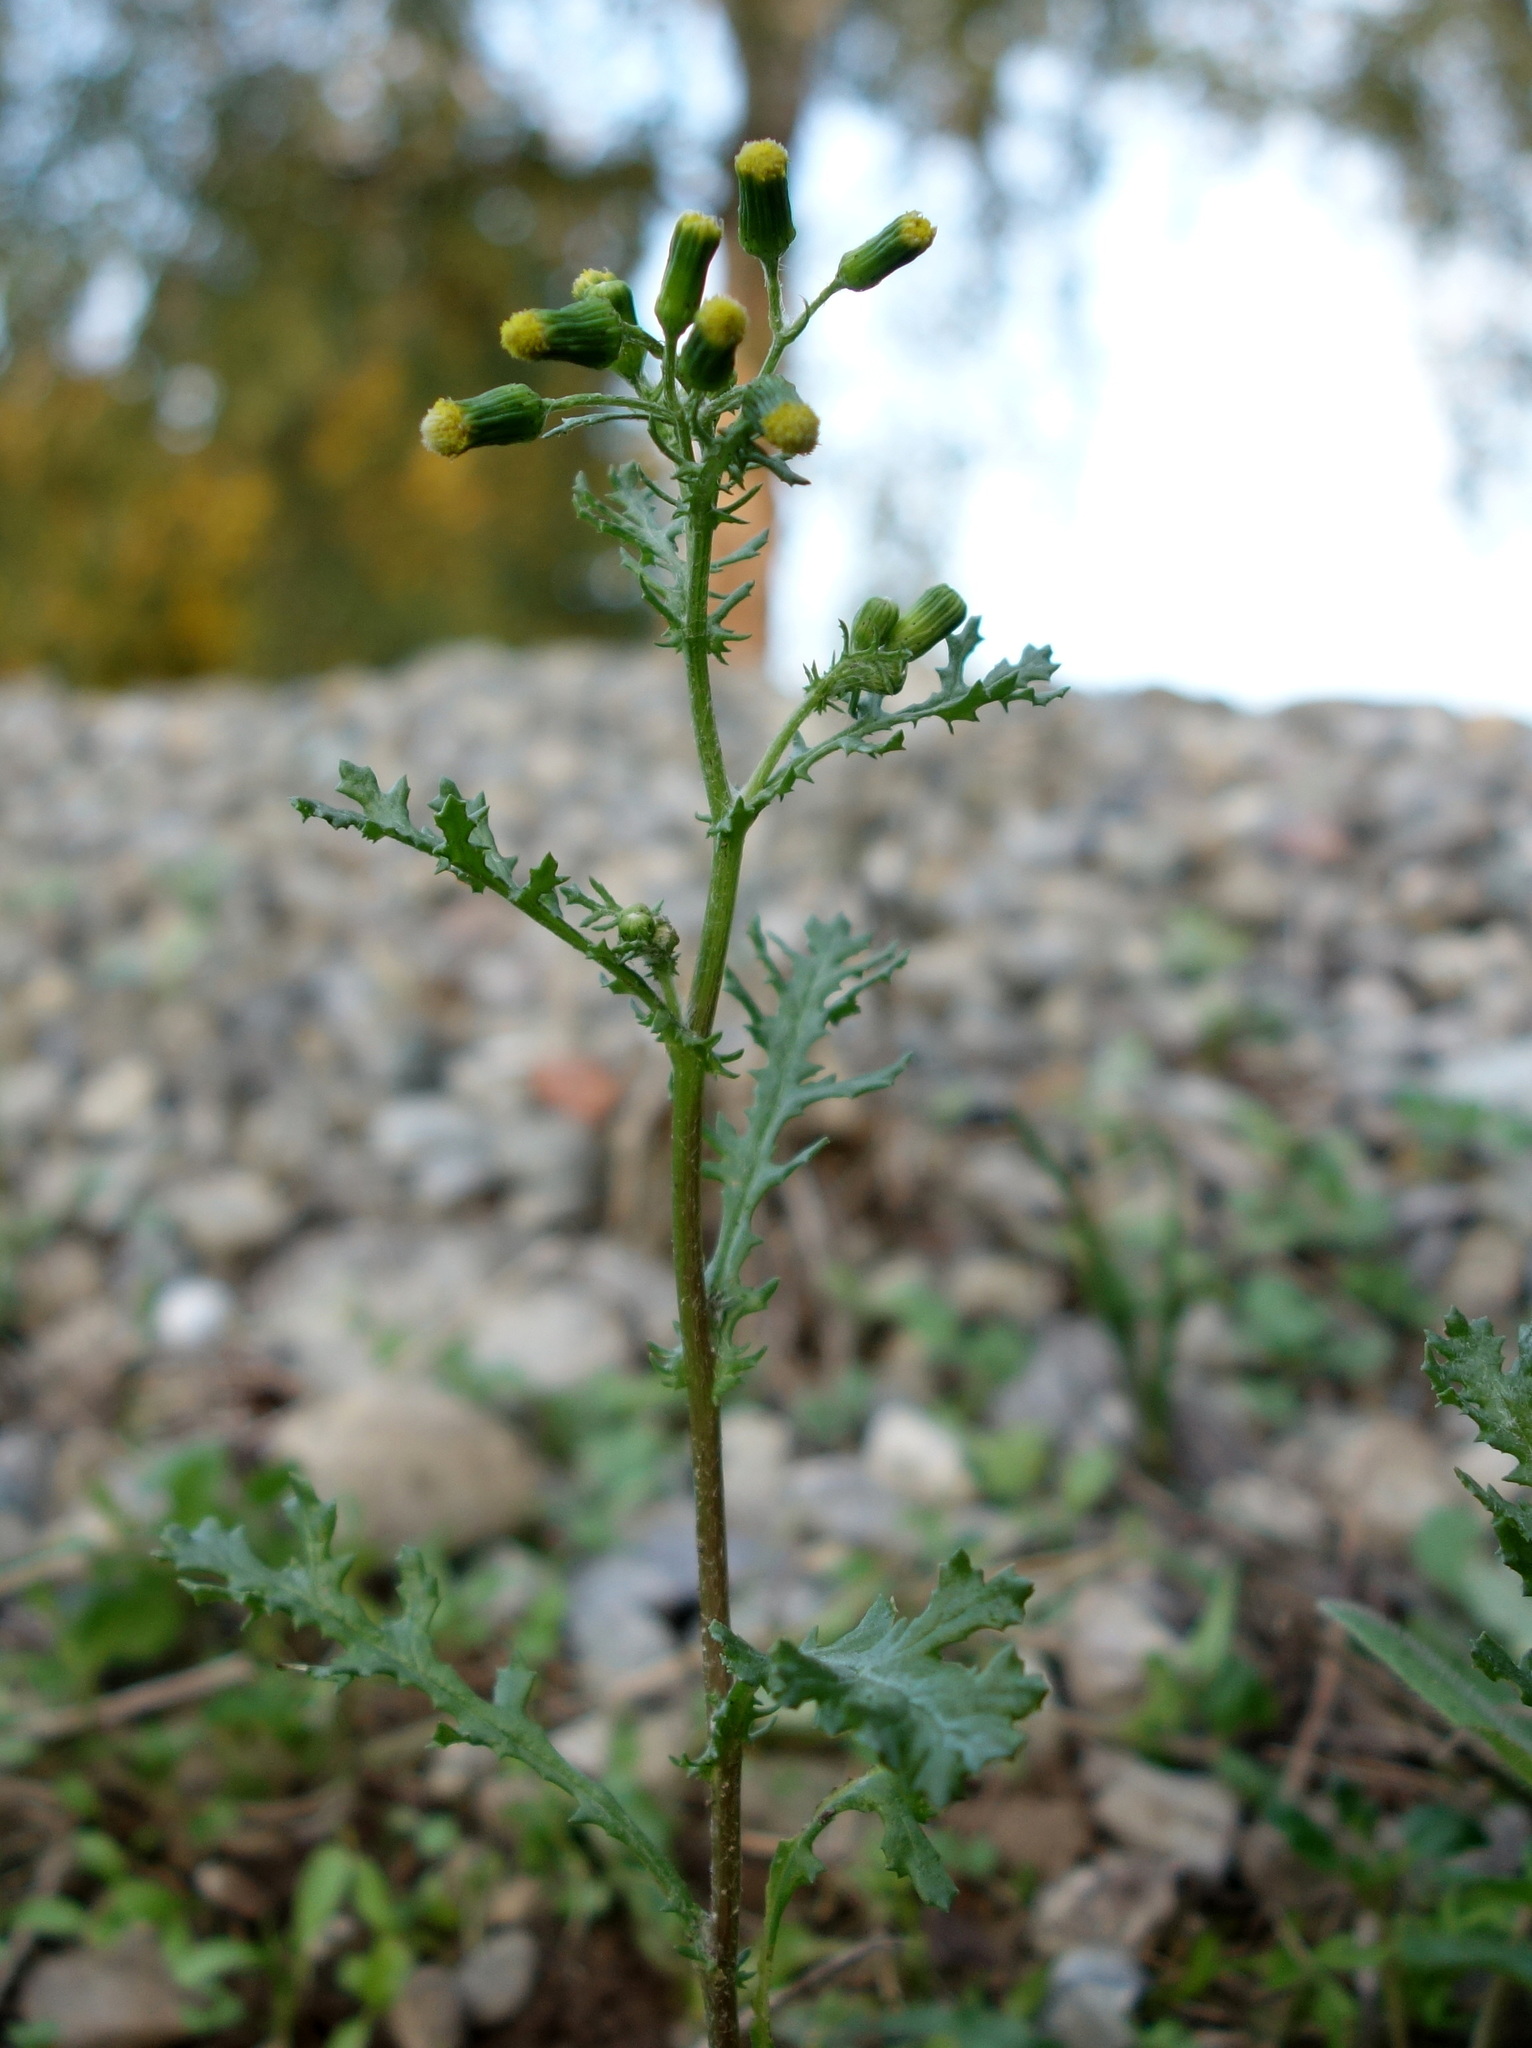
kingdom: Plantae
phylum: Tracheophyta
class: Magnoliopsida
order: Asterales
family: Asteraceae
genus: Senecio
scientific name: Senecio vulgaris
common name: Old-man-in-the-spring
